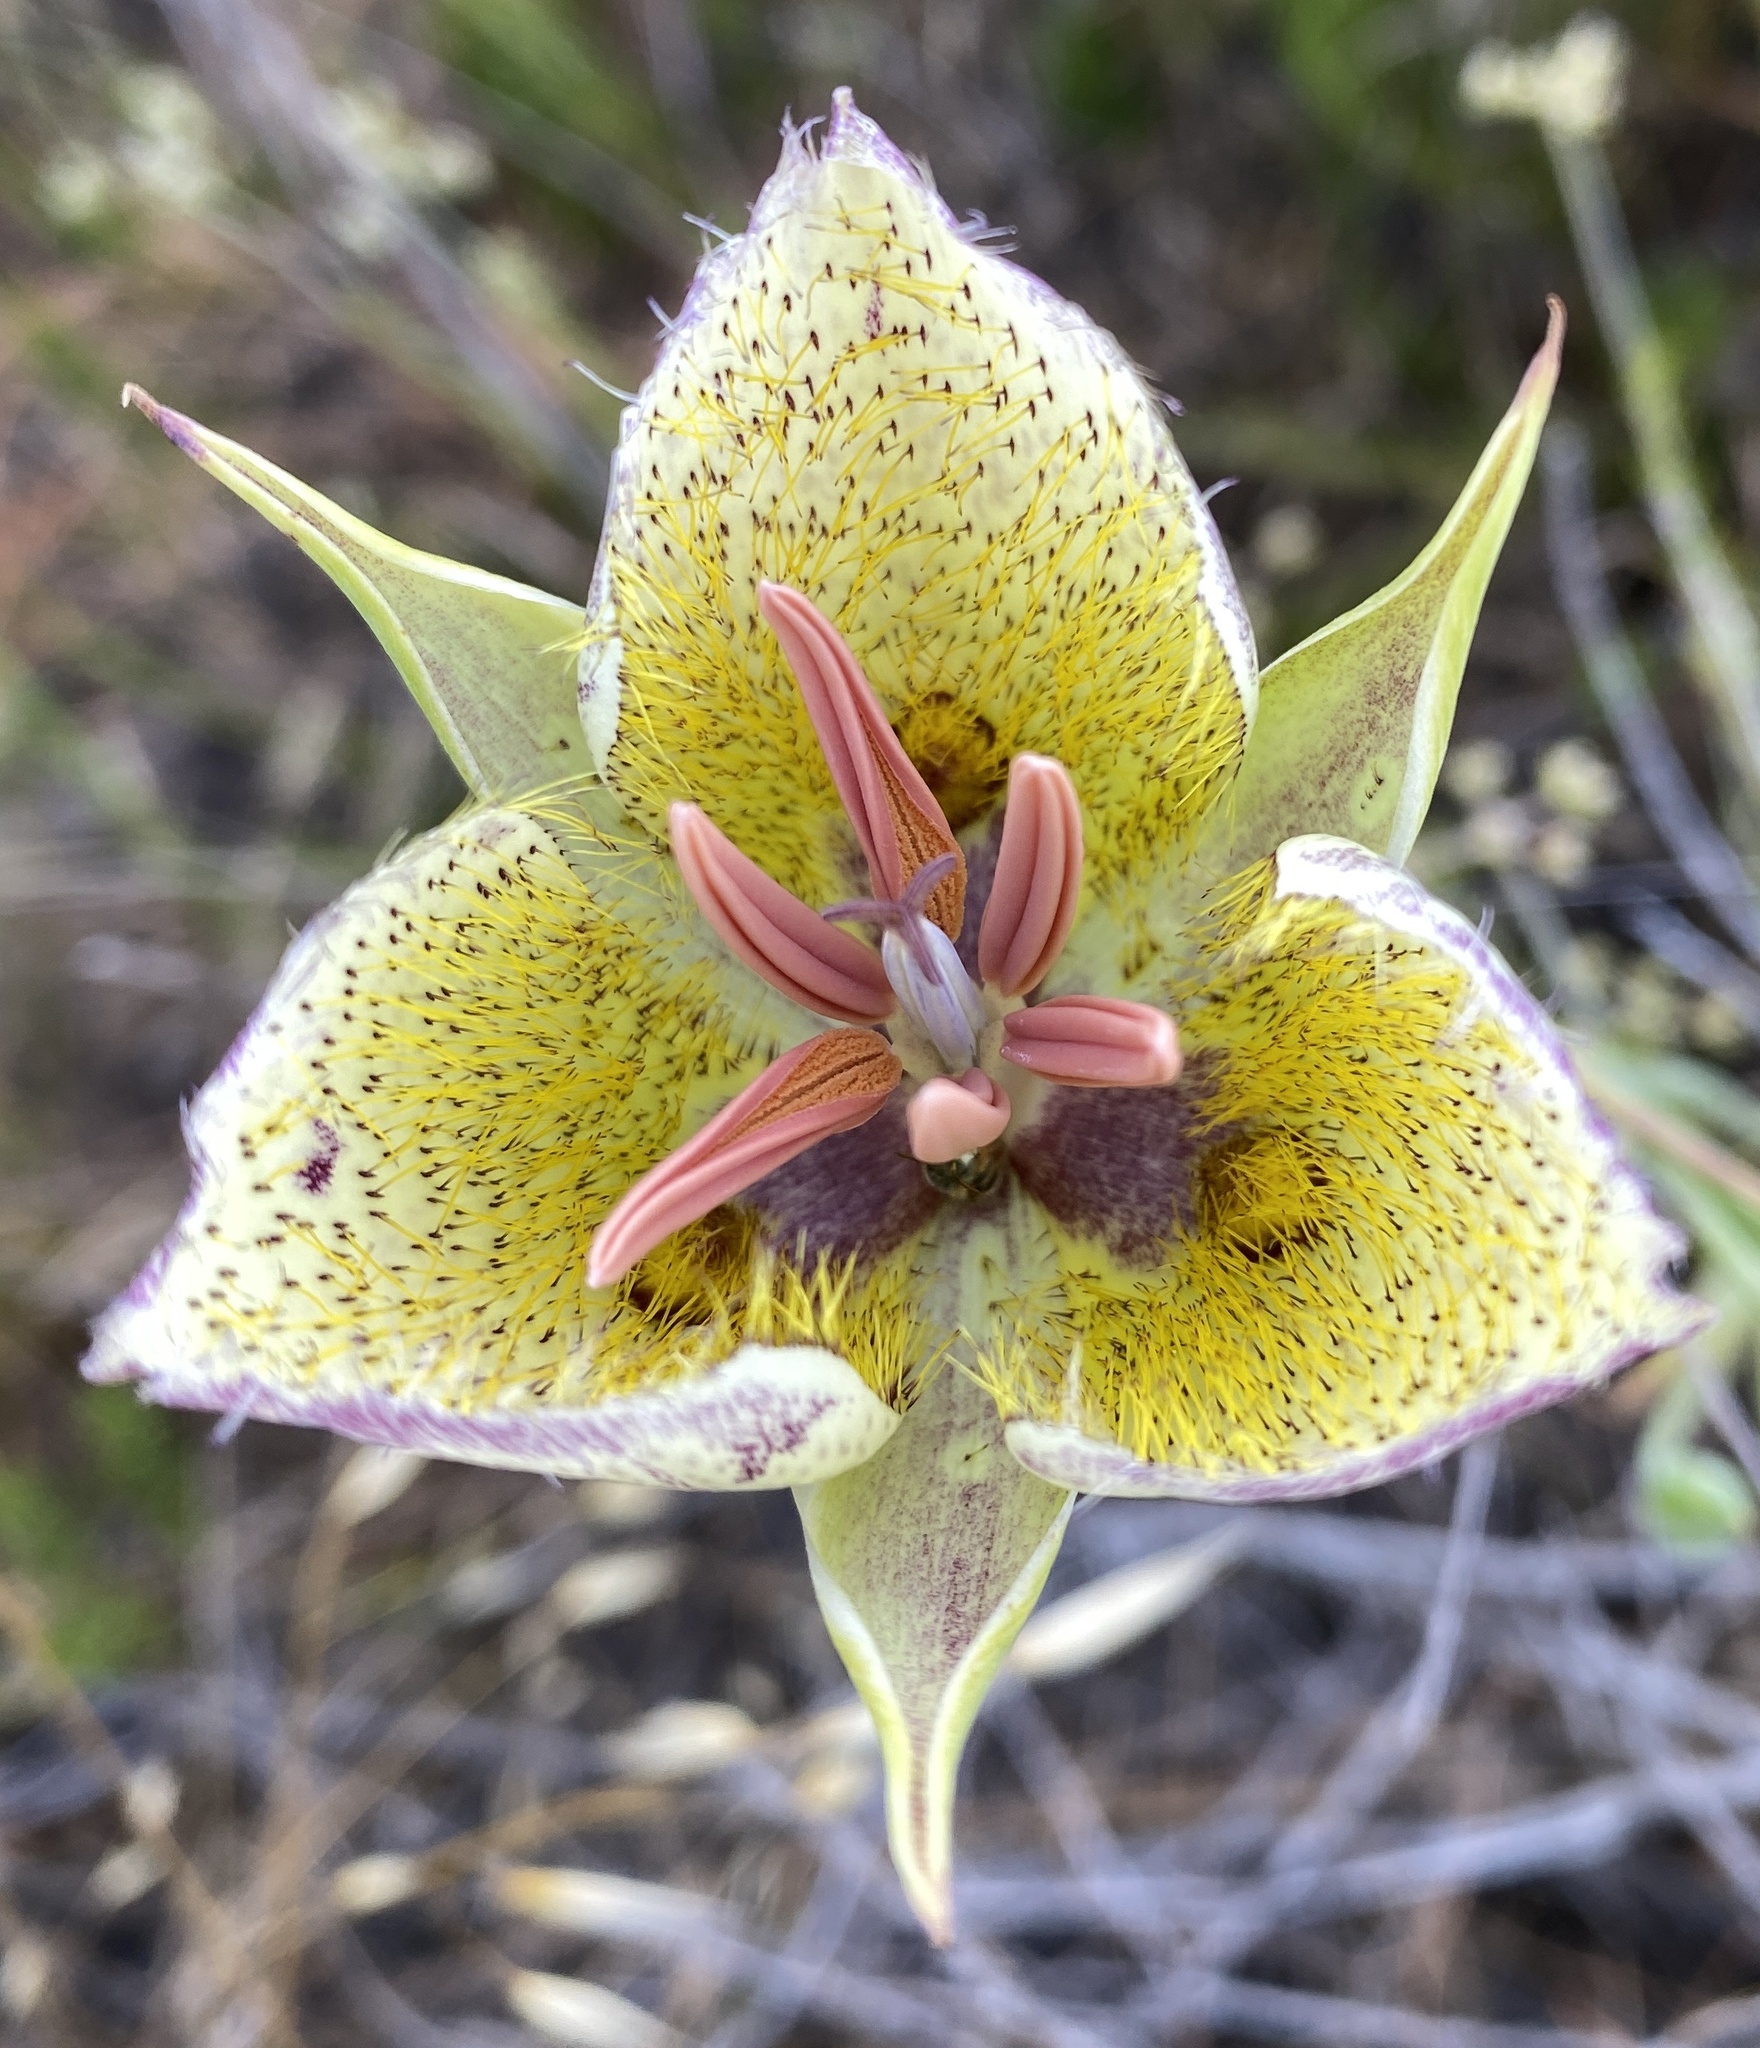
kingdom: Plantae
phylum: Tracheophyta
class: Liliopsida
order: Liliales
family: Liliaceae
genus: Calochortus
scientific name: Calochortus weedii
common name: Weed's mariposa-lily
